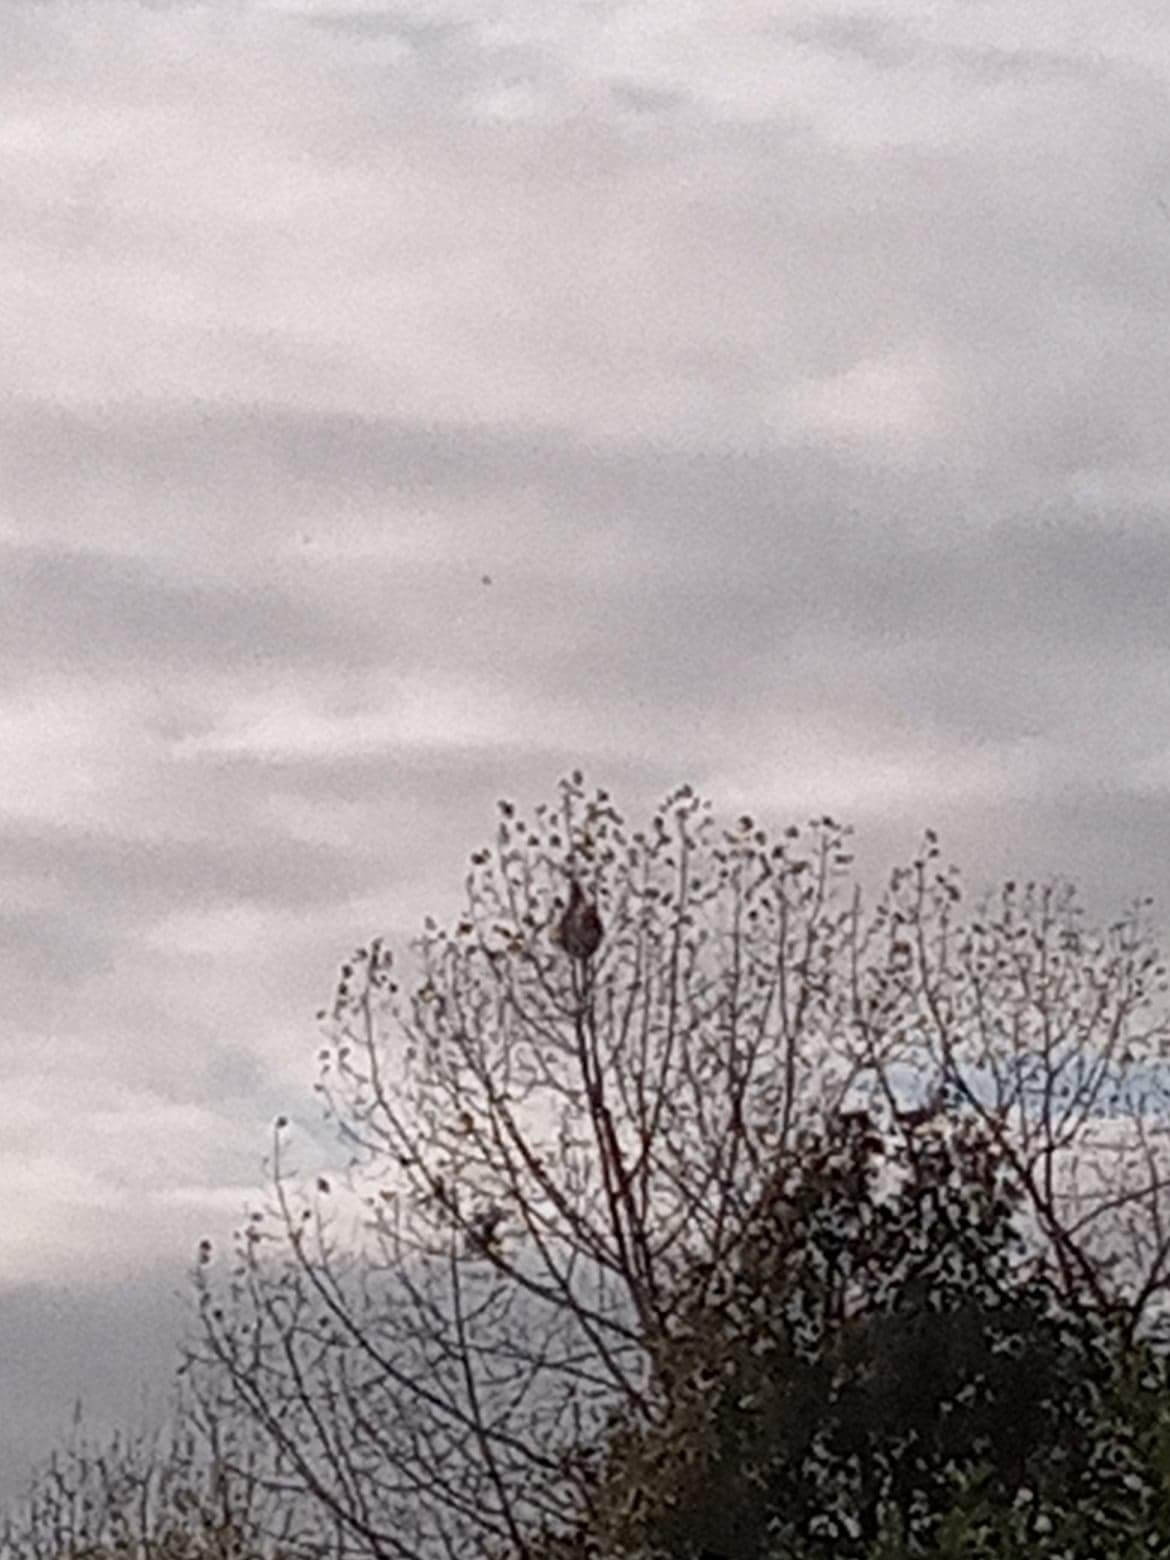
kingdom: Animalia
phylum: Arthropoda
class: Insecta
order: Hymenoptera
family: Vespidae
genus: Vespa
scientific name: Vespa velutina
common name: Asian hornet
